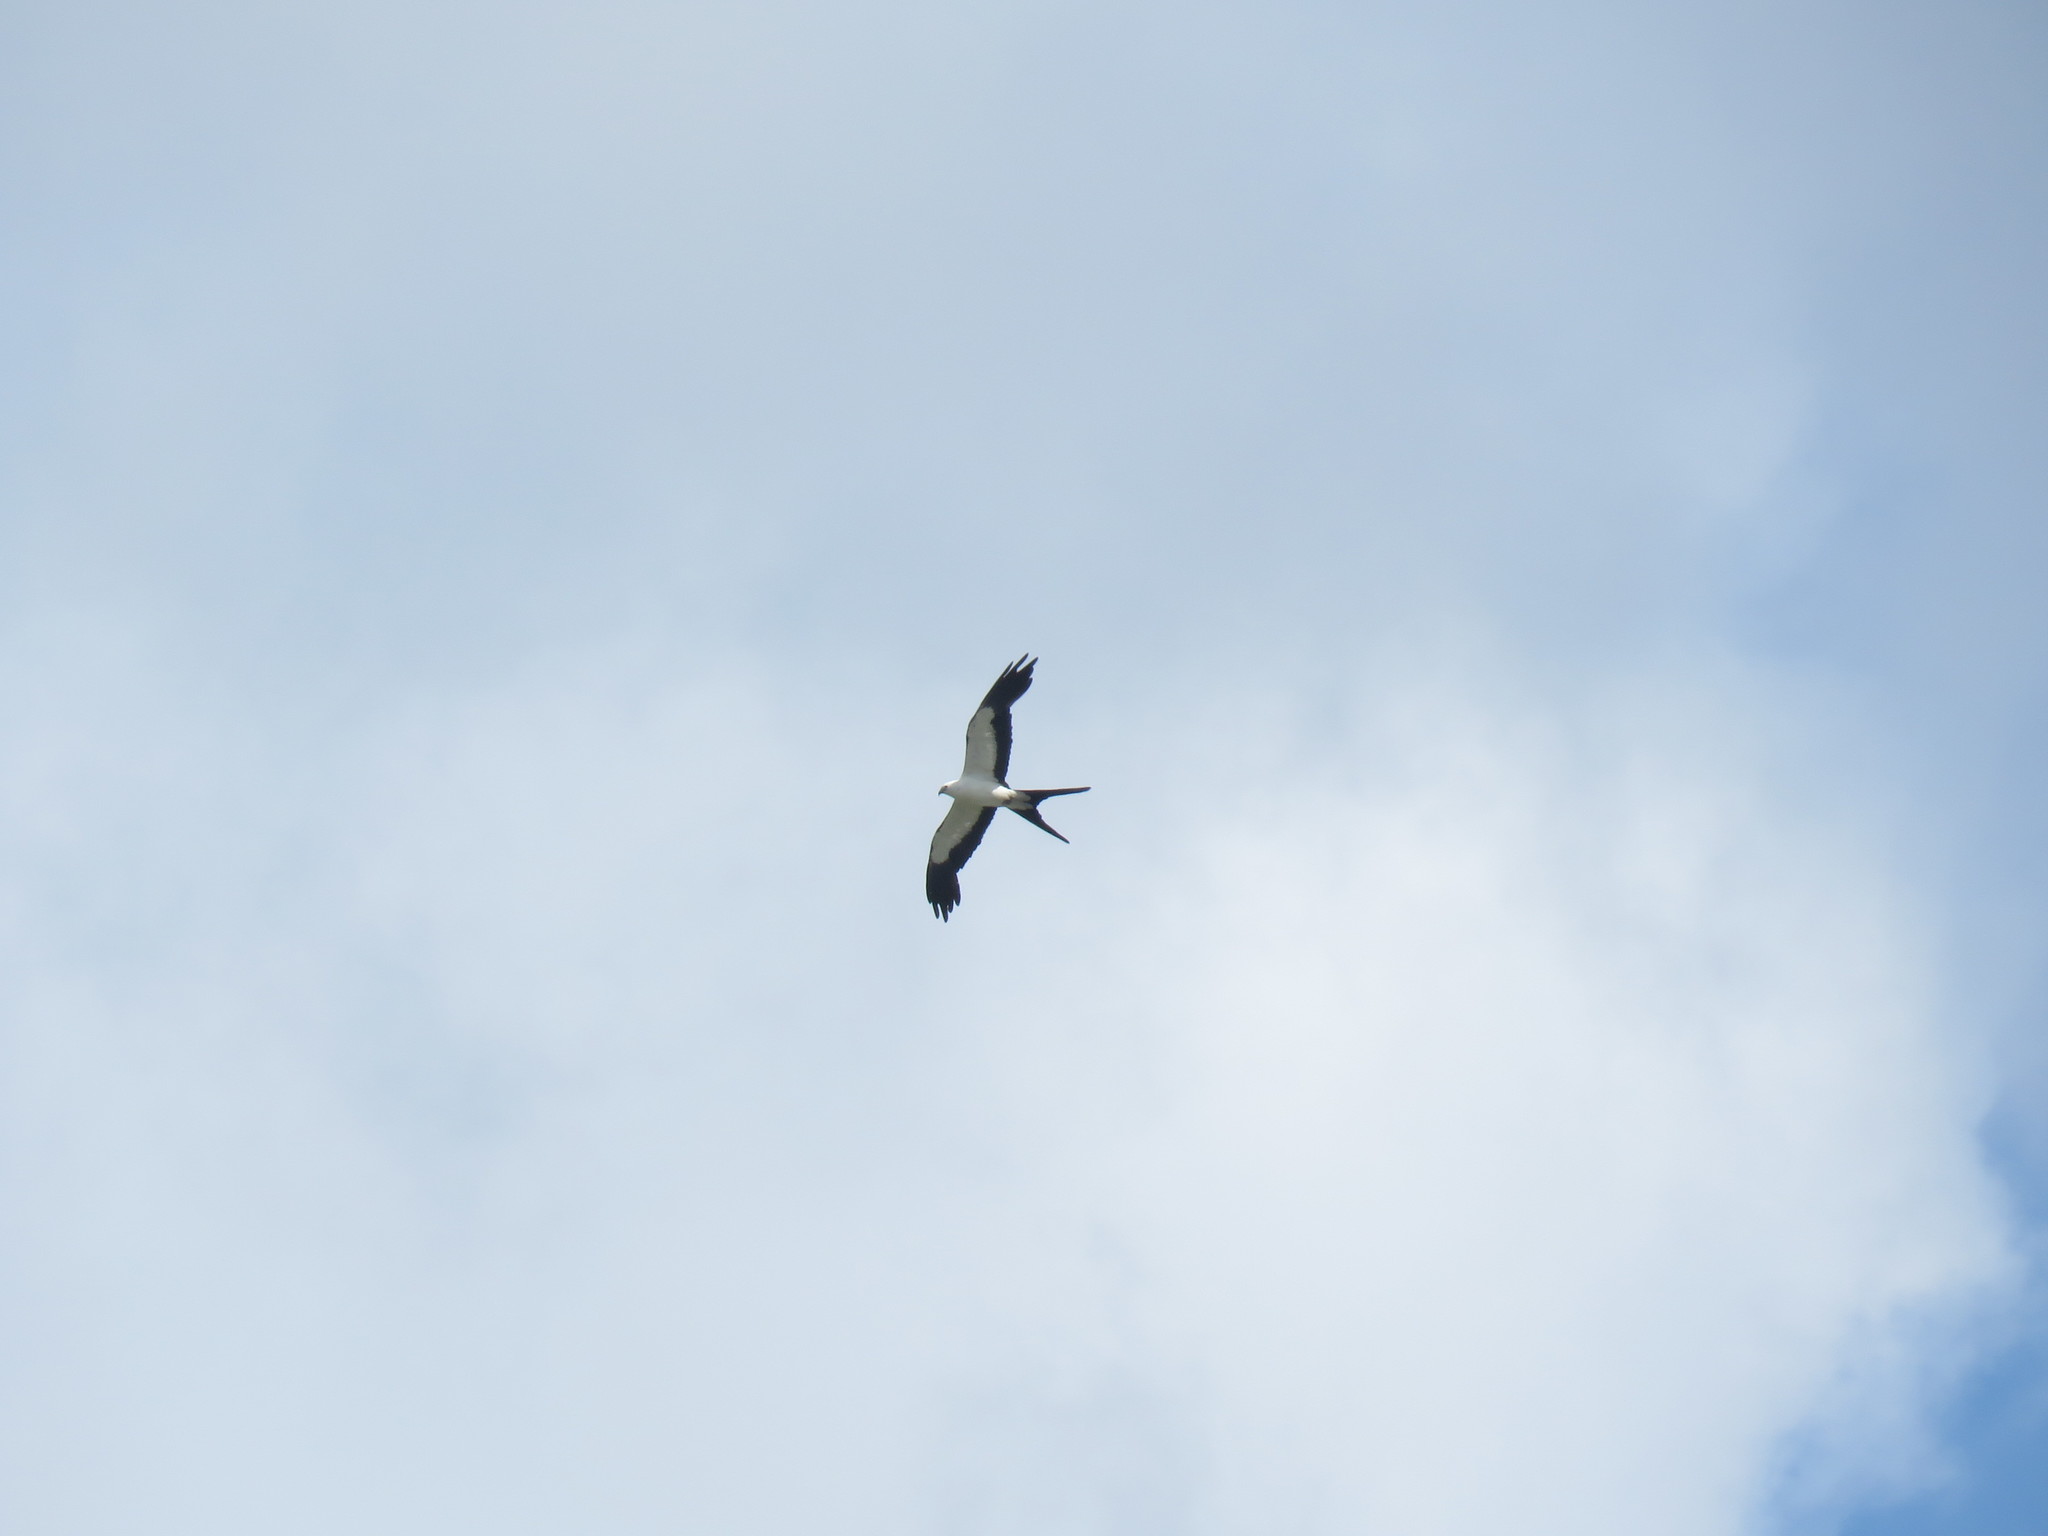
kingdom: Animalia
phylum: Chordata
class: Aves
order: Accipitriformes
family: Accipitridae
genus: Elanoides
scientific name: Elanoides forficatus
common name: Swallow-tailed kite
